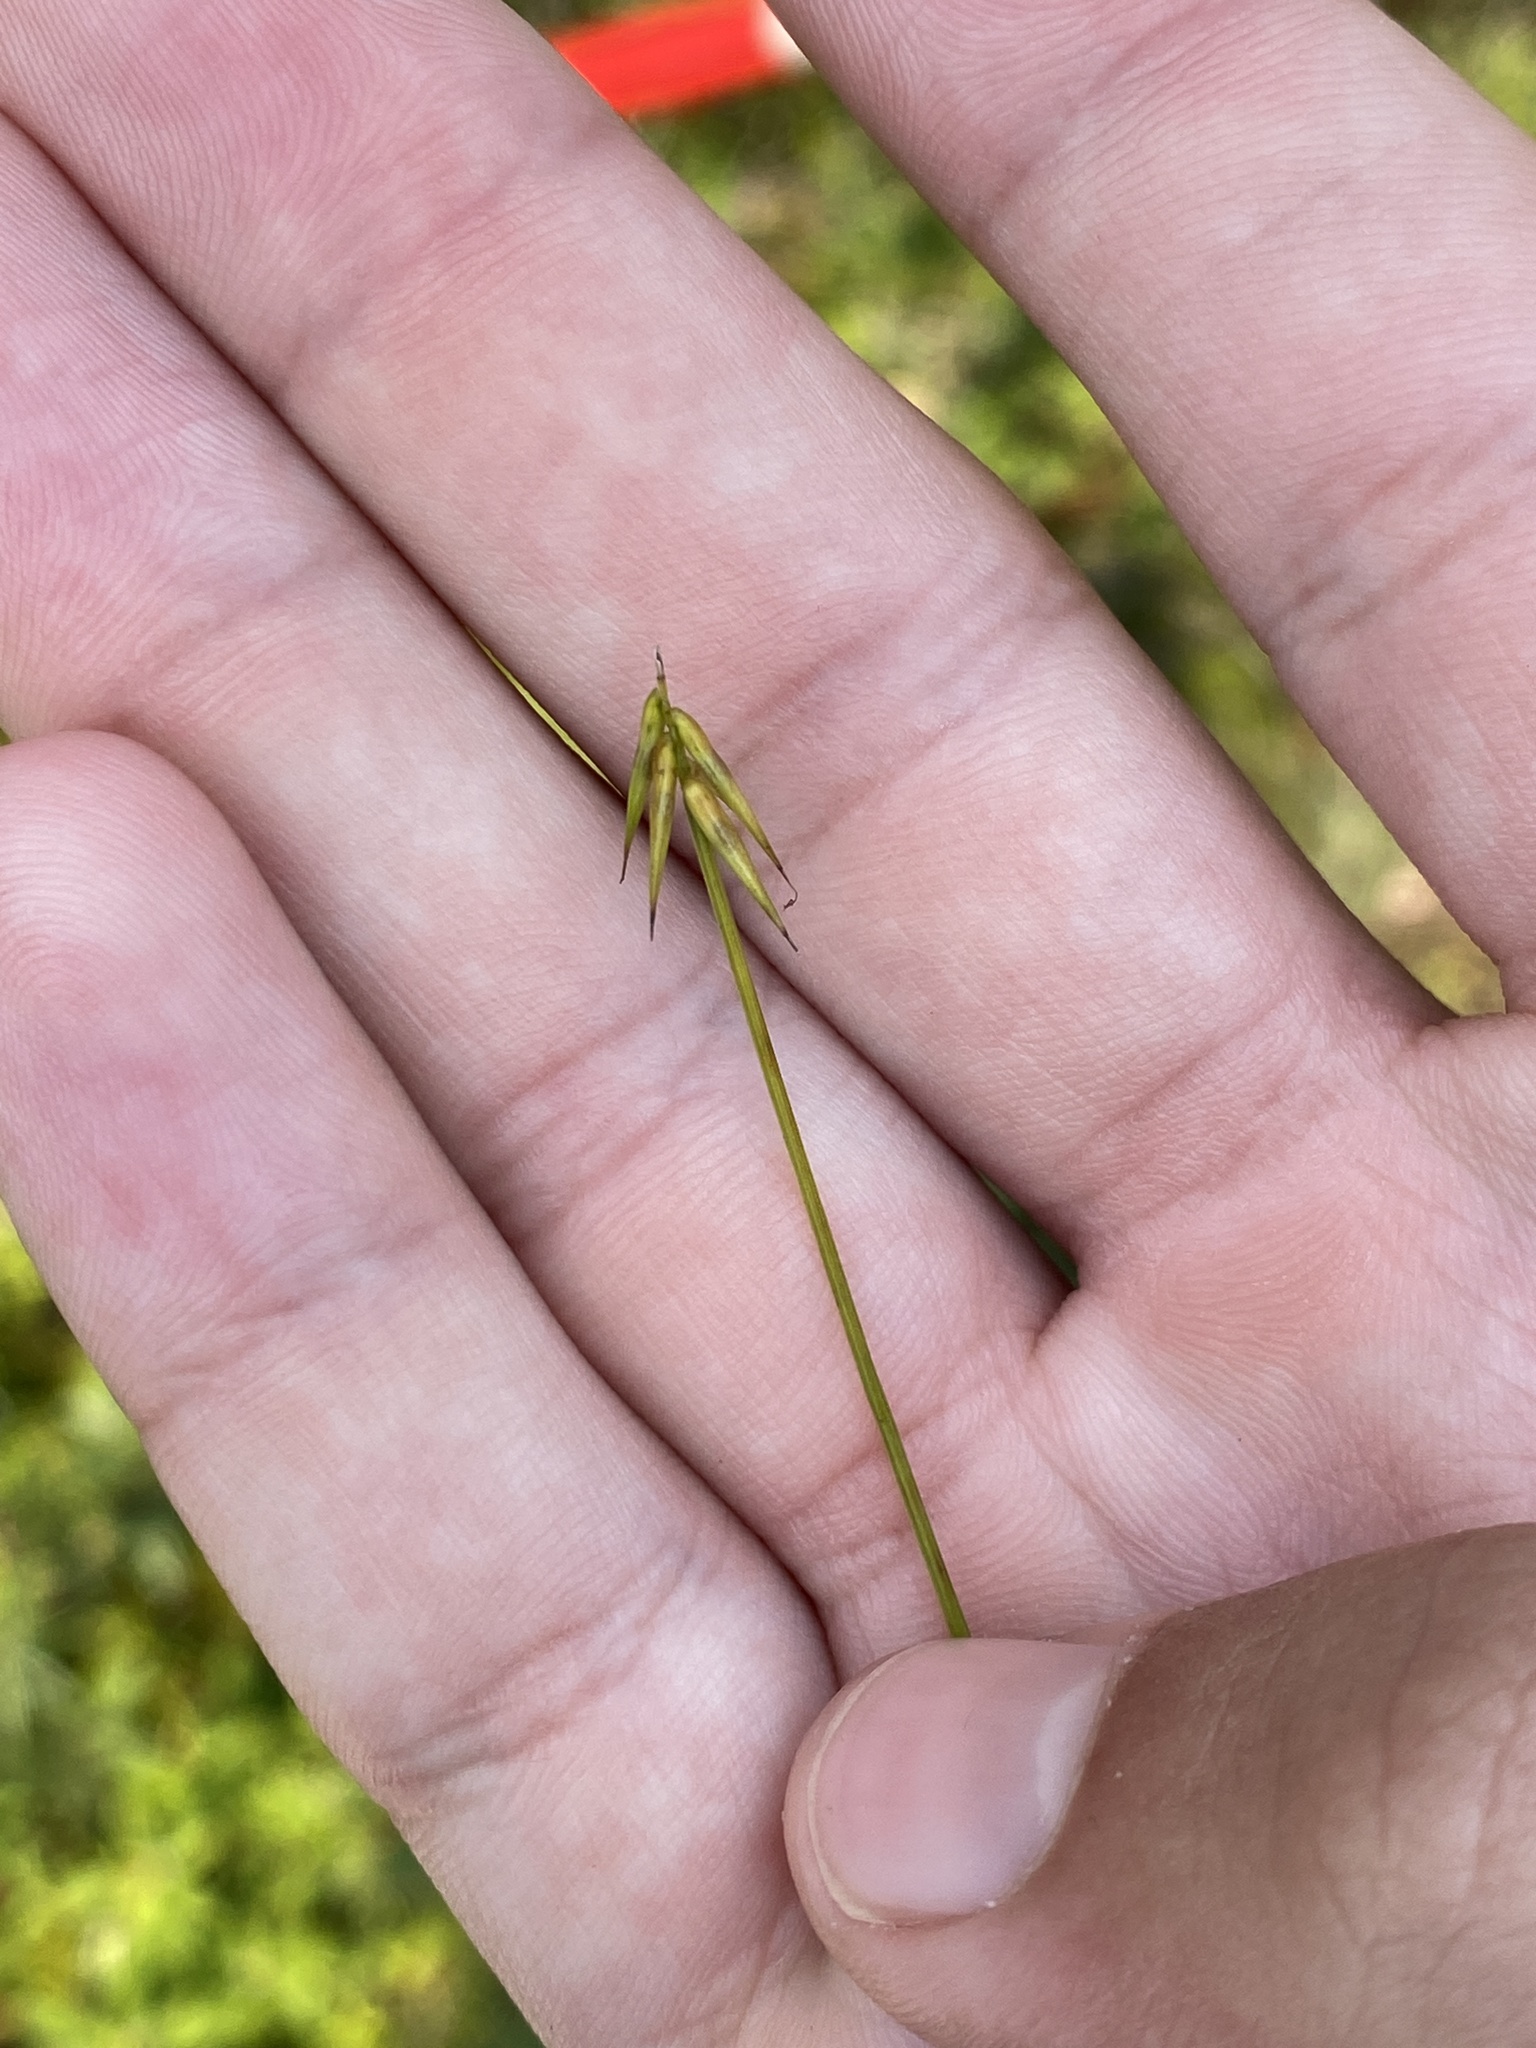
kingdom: Plantae
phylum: Tracheophyta
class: Liliopsida
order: Poales
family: Cyperaceae
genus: Carex
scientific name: Carex pauciflora
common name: Few-flowered sedge
